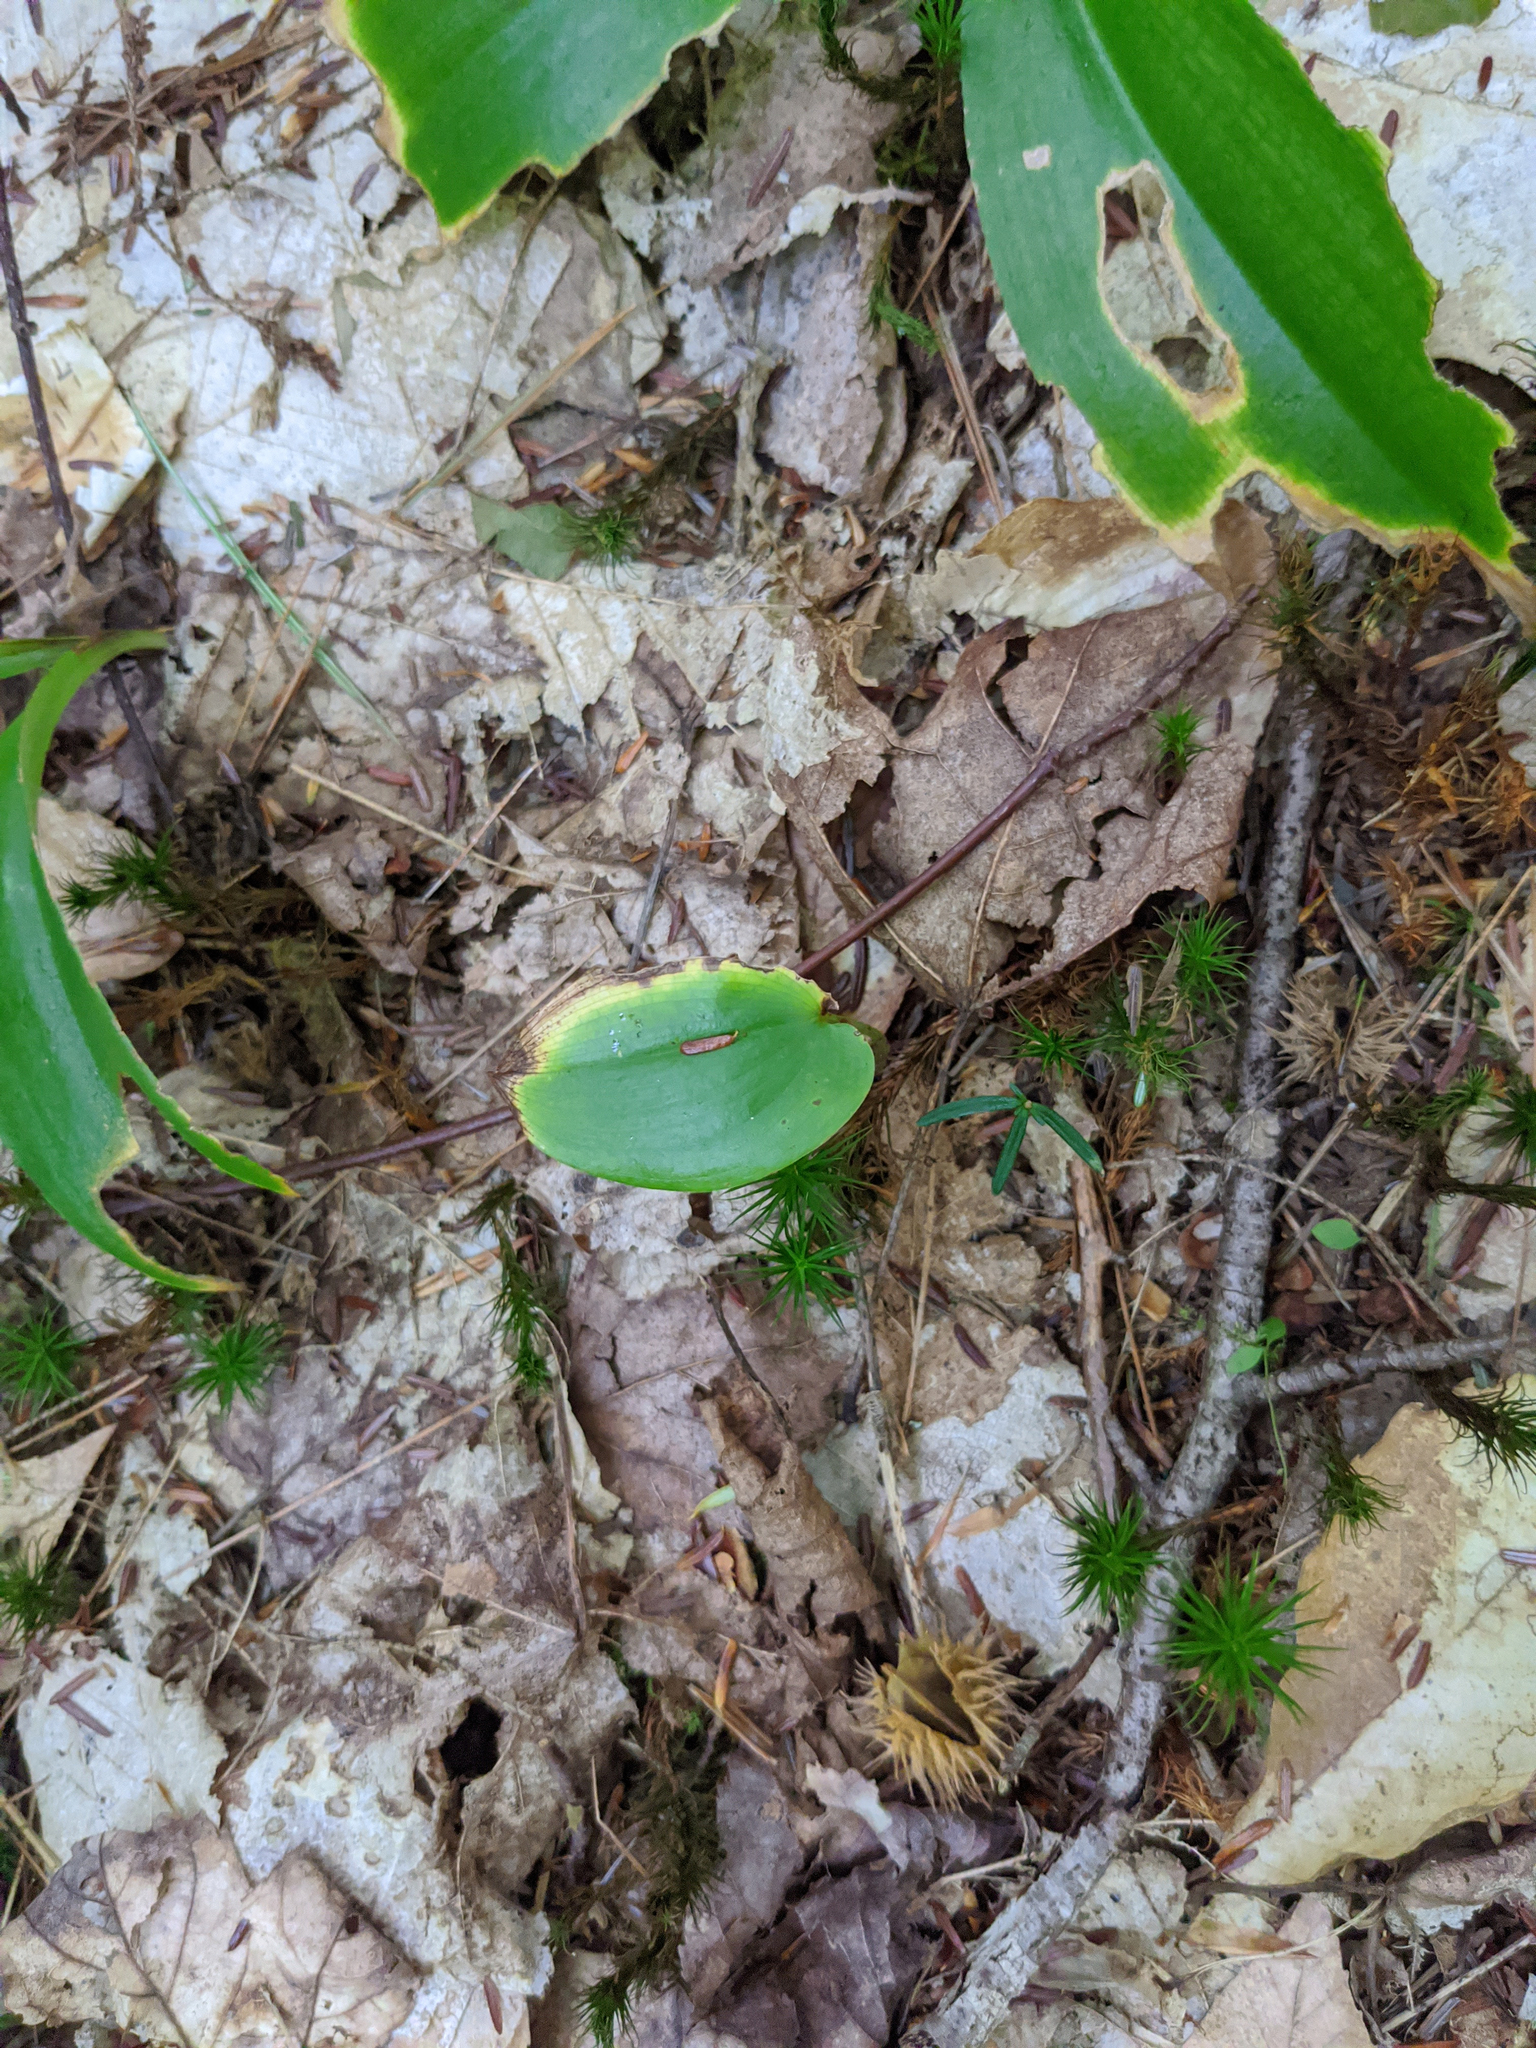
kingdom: Plantae
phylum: Tracheophyta
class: Liliopsida
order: Asparagales
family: Asparagaceae
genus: Maianthemum
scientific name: Maianthemum canadense
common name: False lily-of-the-valley
